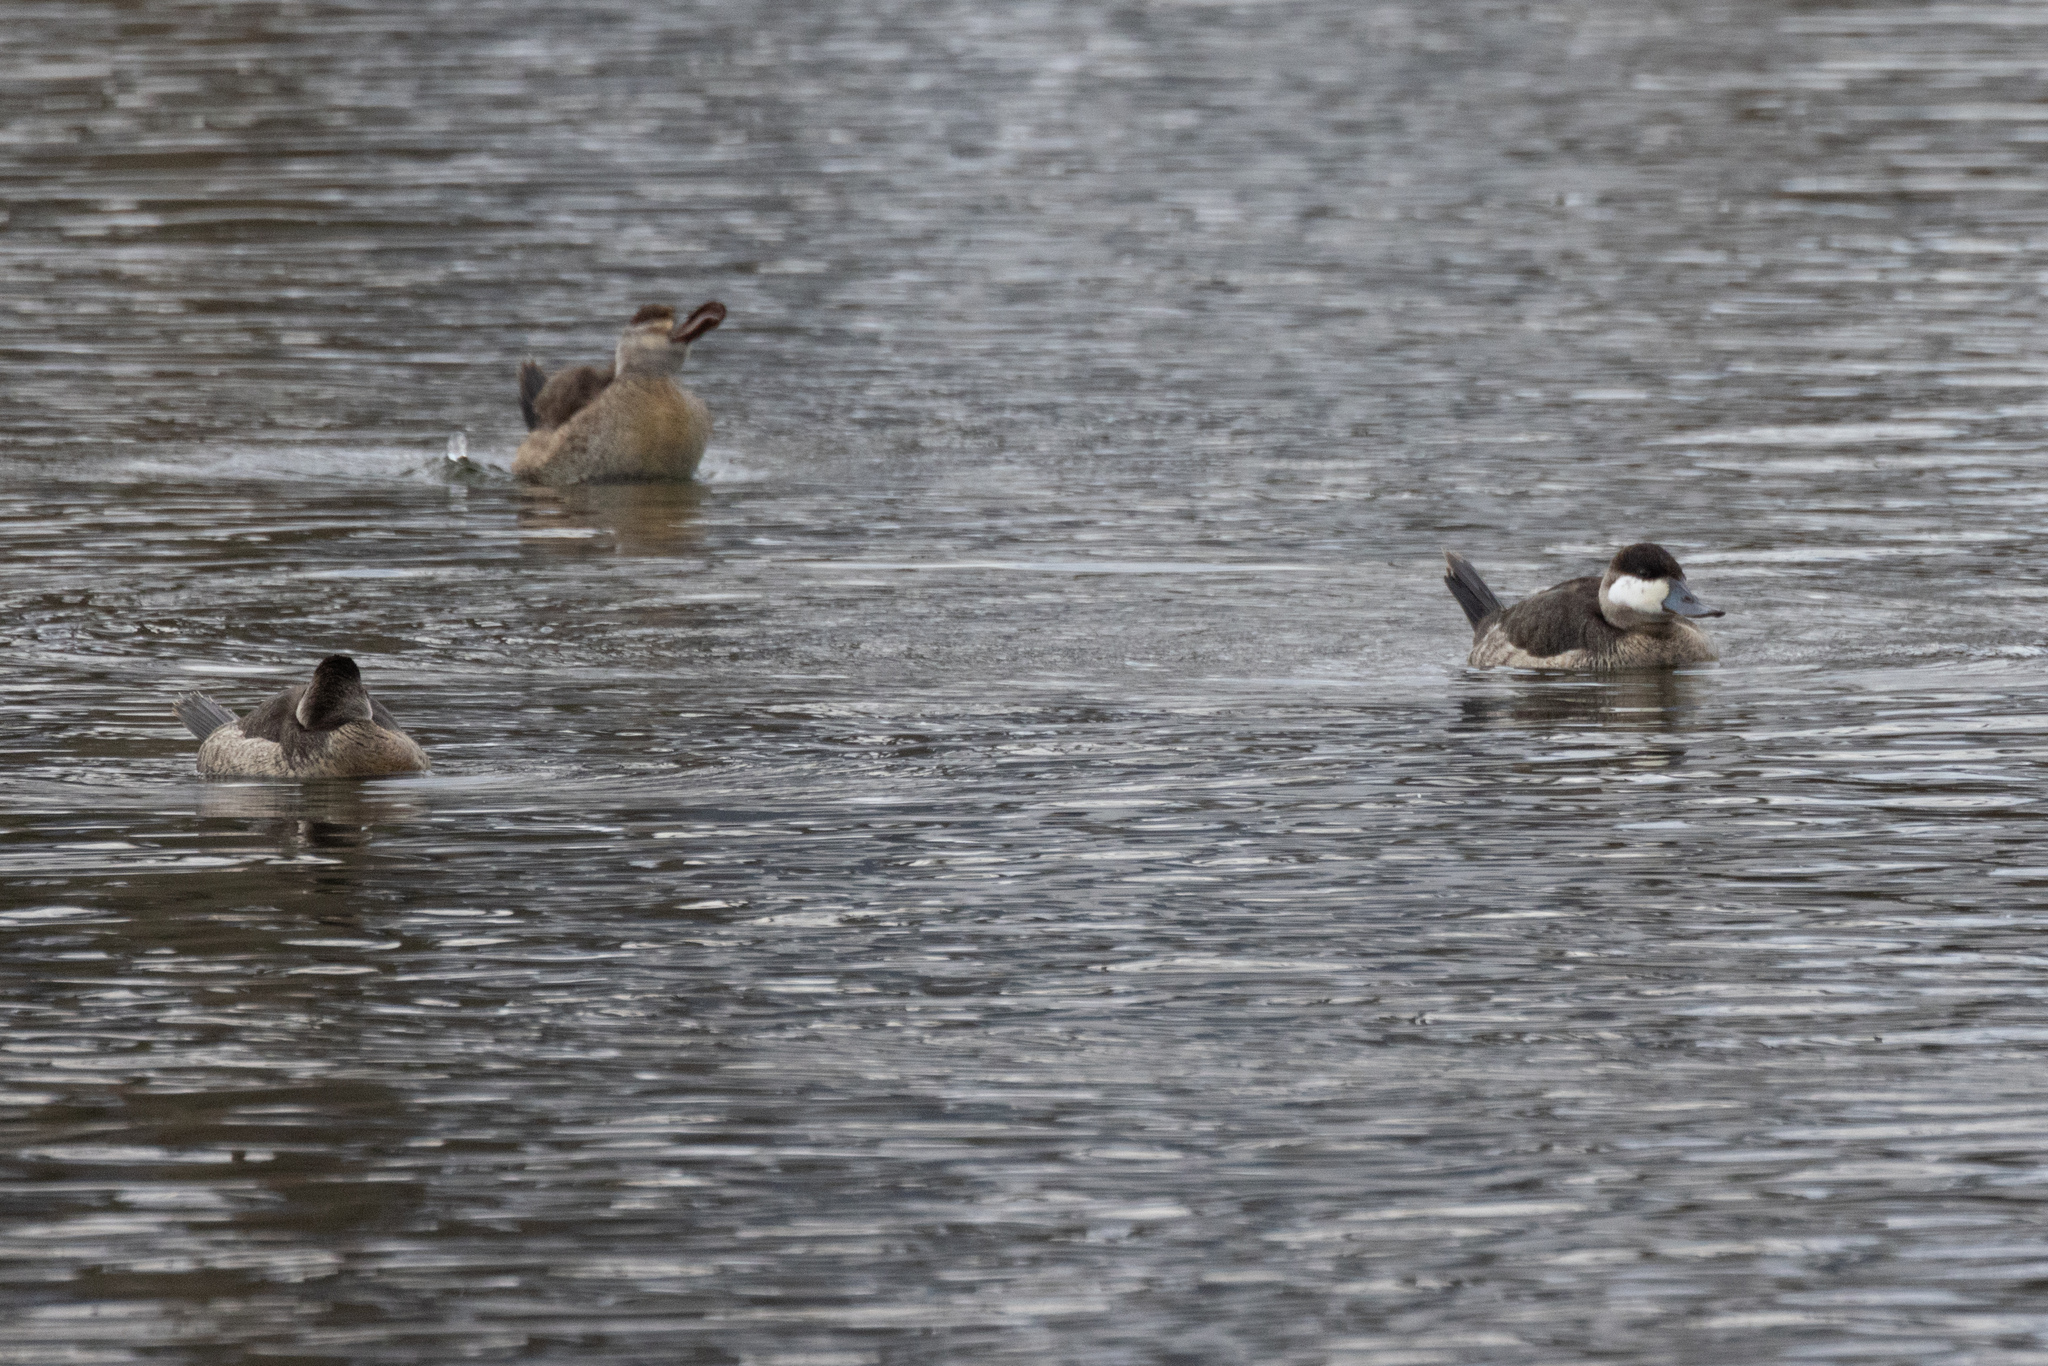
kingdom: Animalia
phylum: Chordata
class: Aves
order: Anseriformes
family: Anatidae
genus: Oxyura
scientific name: Oxyura jamaicensis
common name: Ruddy duck
